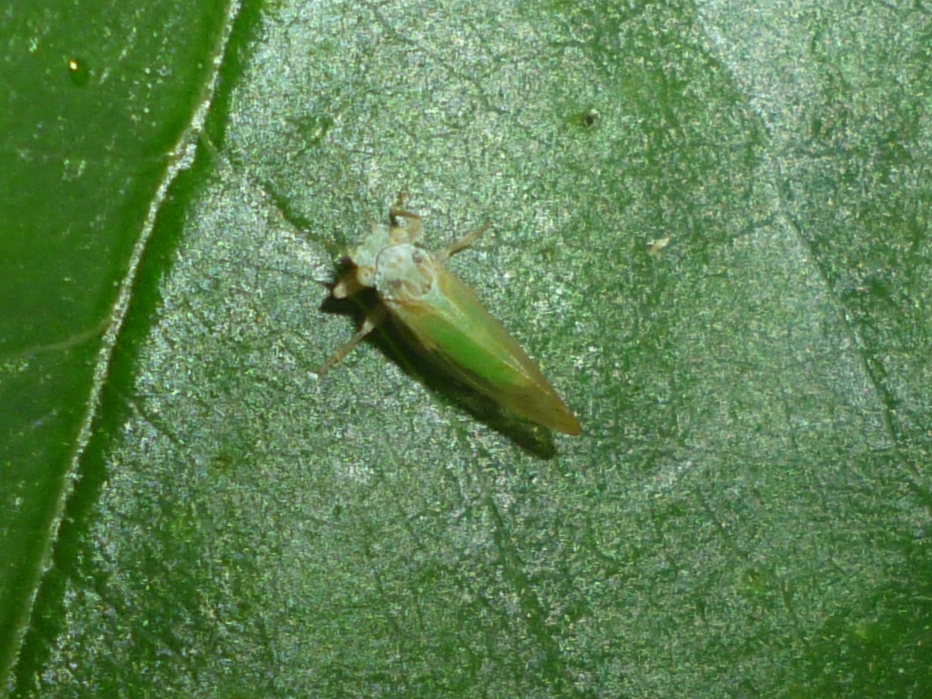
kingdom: Animalia
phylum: Arthropoda
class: Insecta
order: Hemiptera
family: Psyllidae
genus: Psylla
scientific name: Psylla buxi
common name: Boxwood psyllid
